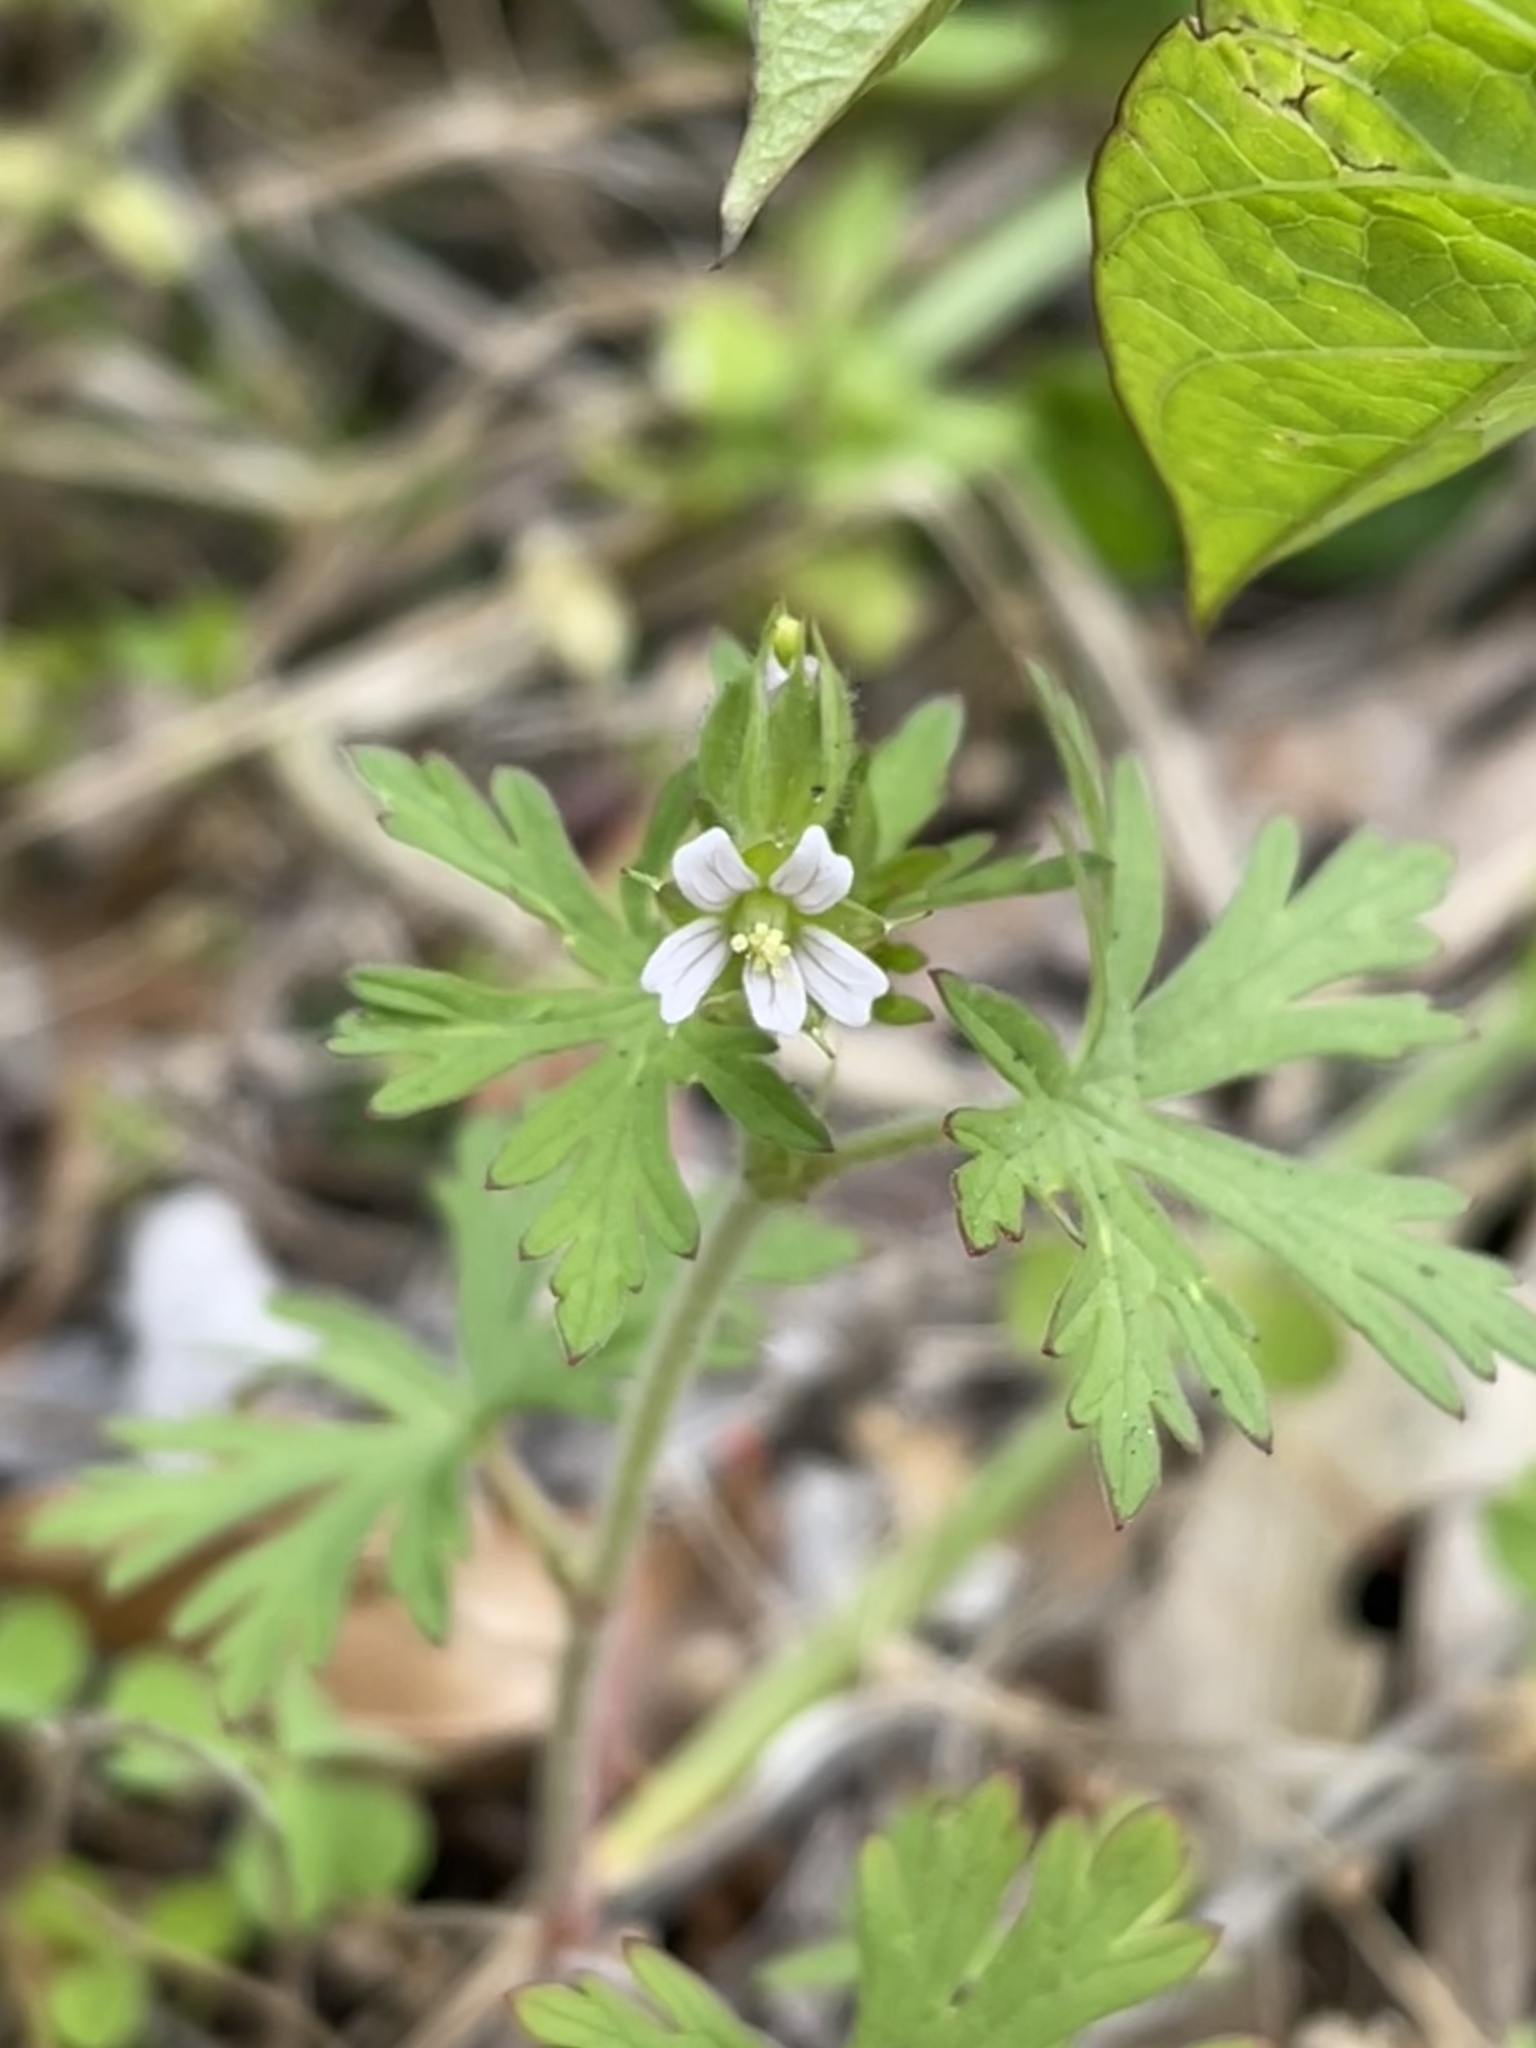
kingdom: Plantae
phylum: Tracheophyta
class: Magnoliopsida
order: Geraniales
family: Geraniaceae
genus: Geranium
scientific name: Geranium carolinianum
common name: Carolina crane's-bill
